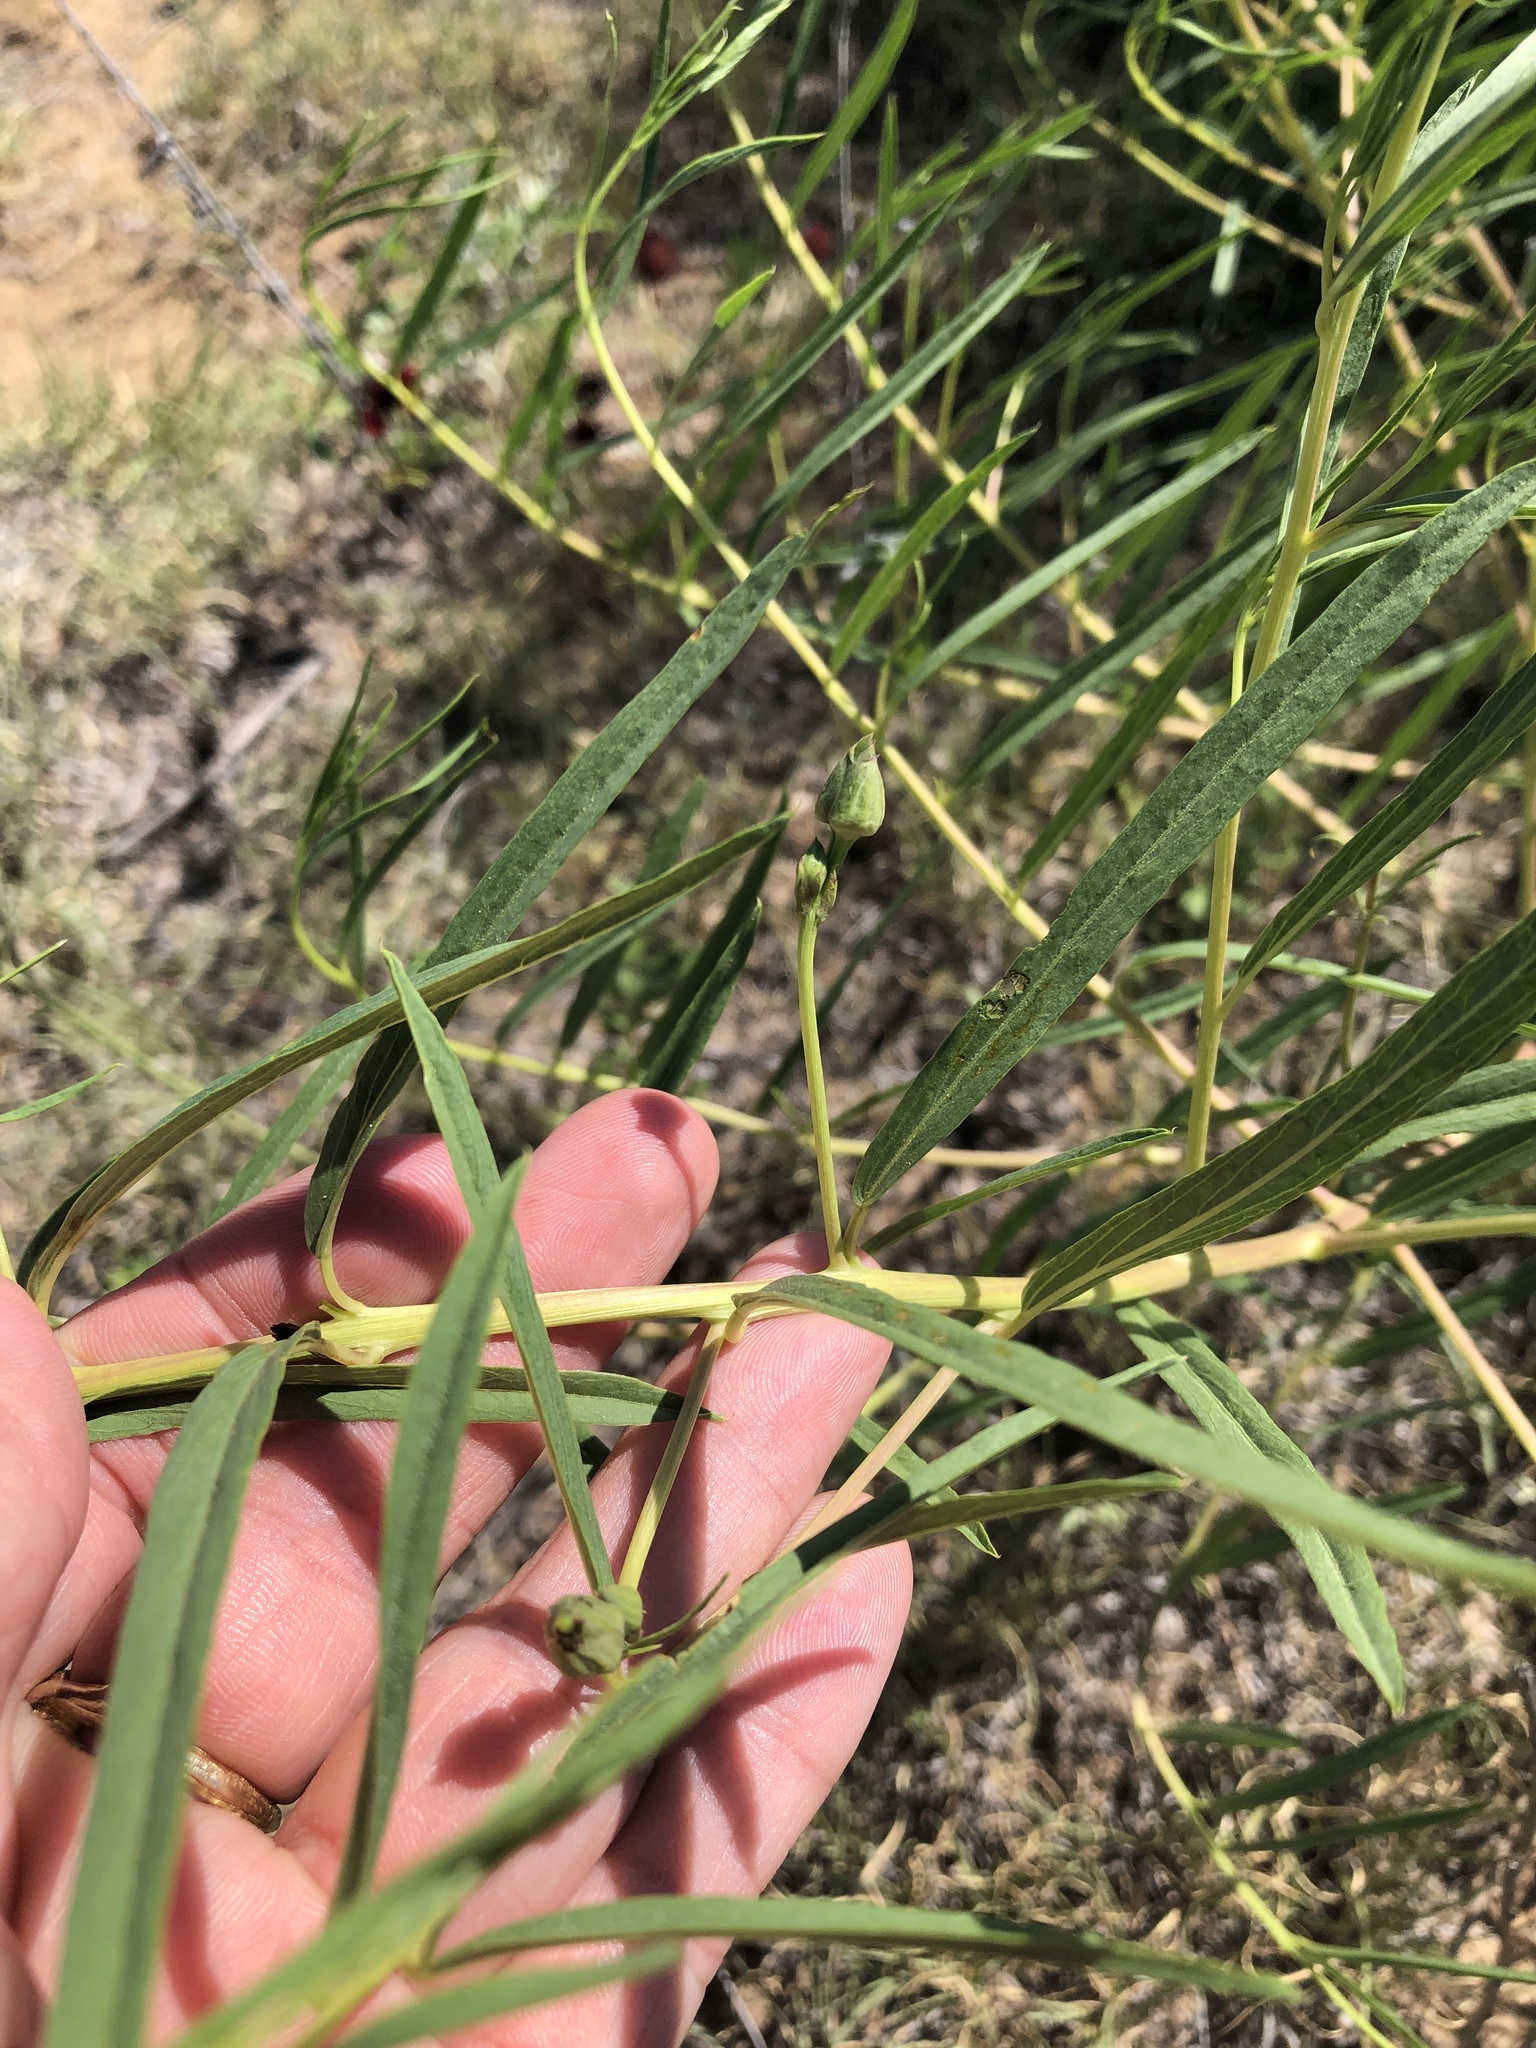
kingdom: Plantae
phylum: Tracheophyta
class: Magnoliopsida
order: Solanales
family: Convolvulaceae
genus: Ipomoea
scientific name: Ipomoea leptophylla
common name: Bush moonflower
